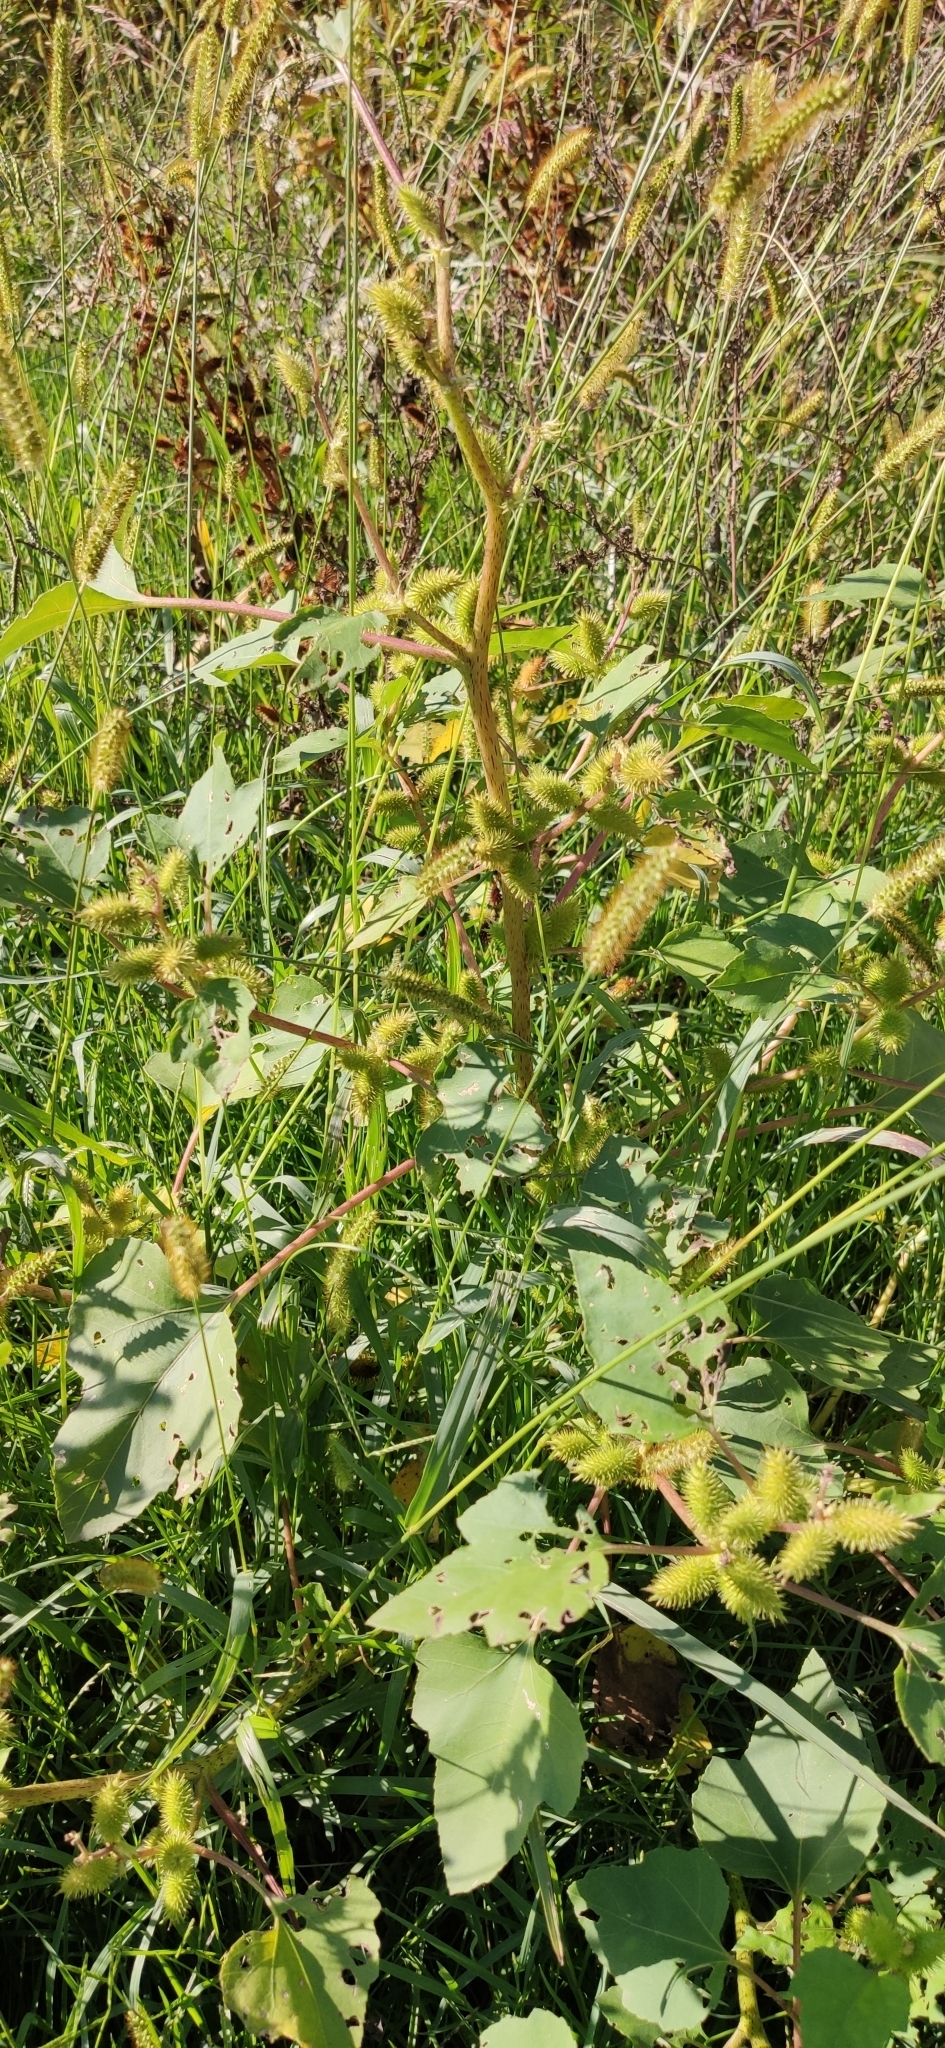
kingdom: Plantae
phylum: Tracheophyta
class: Magnoliopsida
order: Asterales
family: Asteraceae
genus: Xanthium
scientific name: Xanthium orientale
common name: Californian burr
